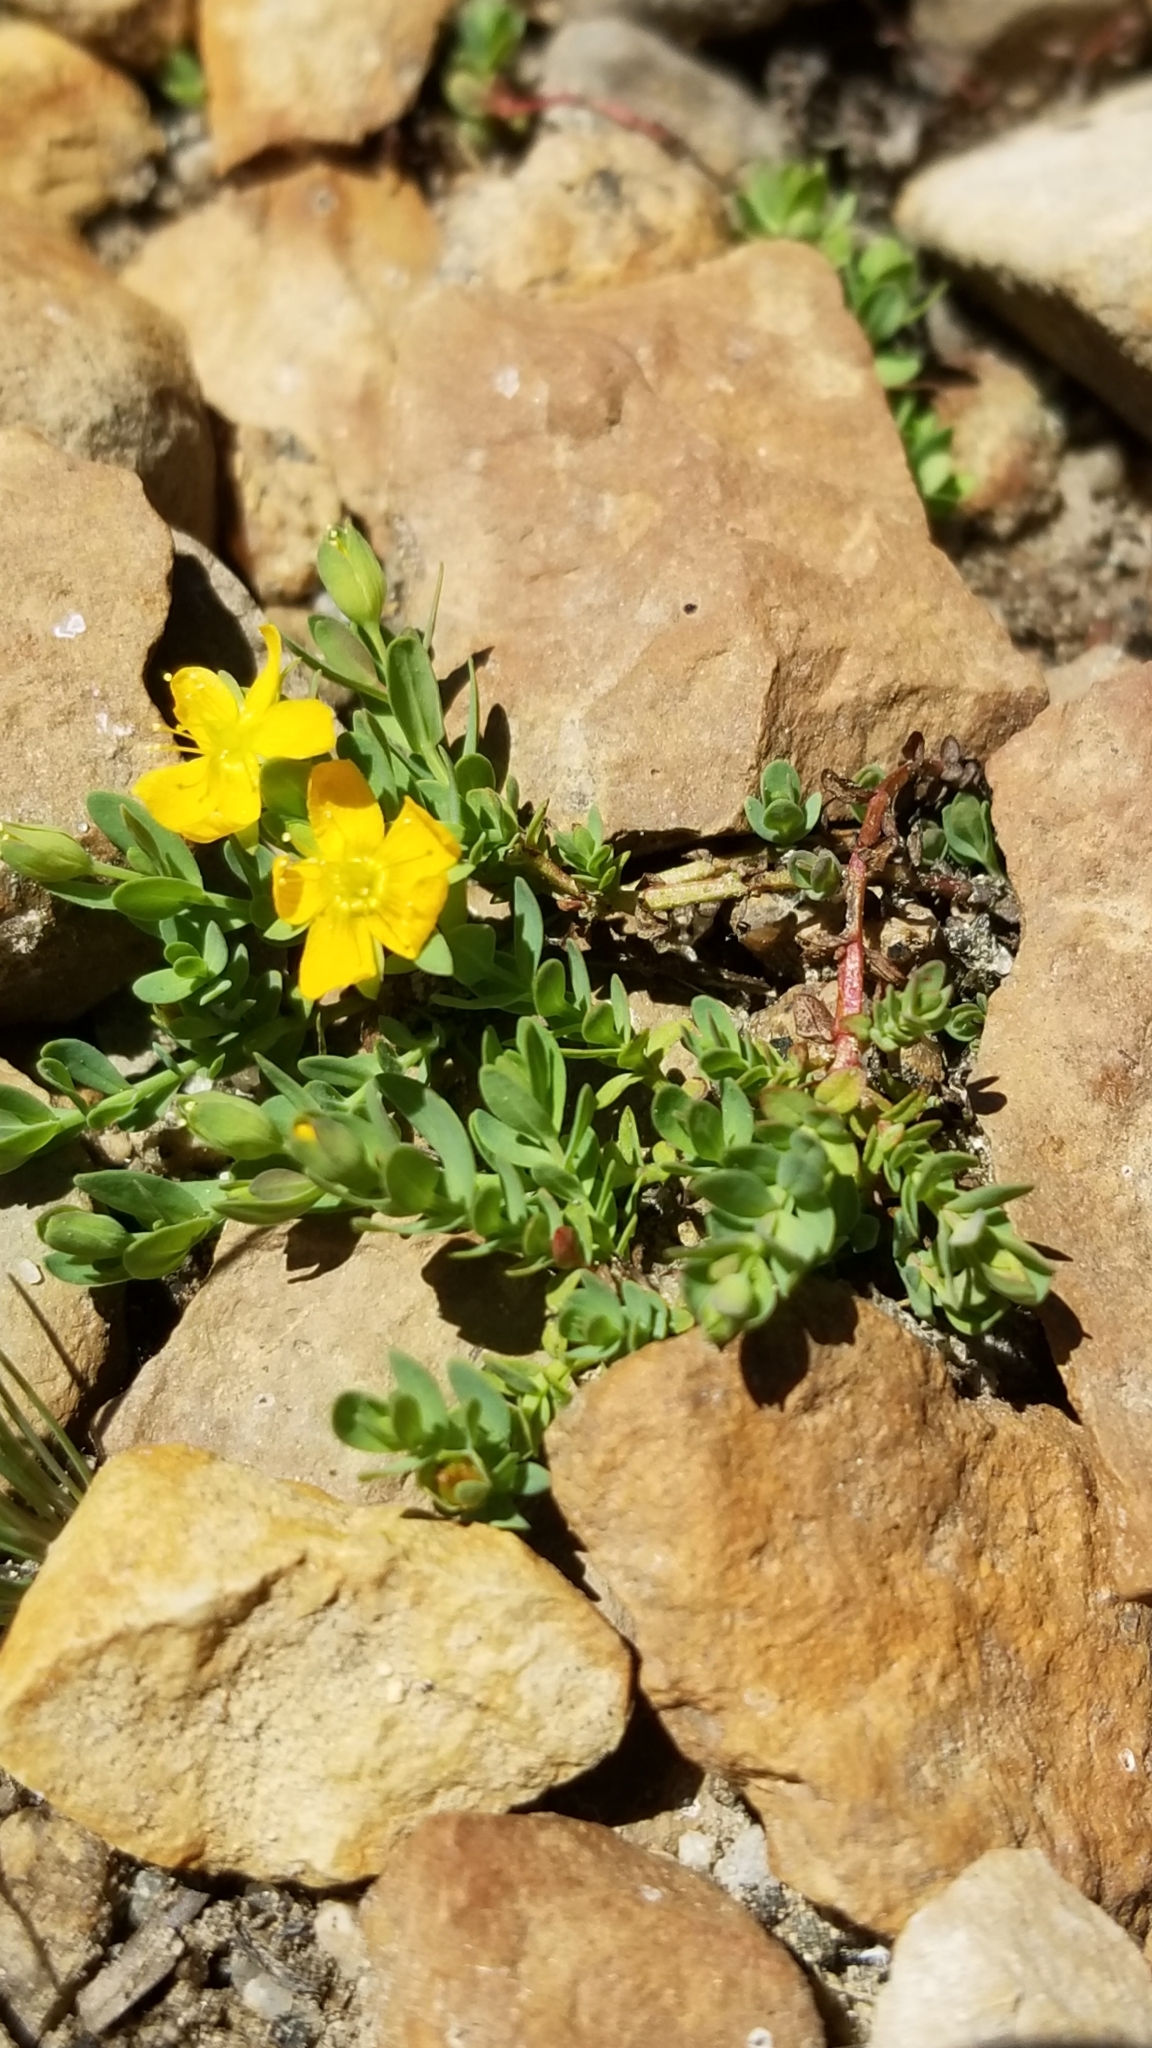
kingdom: Plantae
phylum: Tracheophyta
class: Magnoliopsida
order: Malpighiales
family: Hypericaceae
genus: Hypericum
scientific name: Hypericum anagalloides
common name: Bog st. john's-wort
